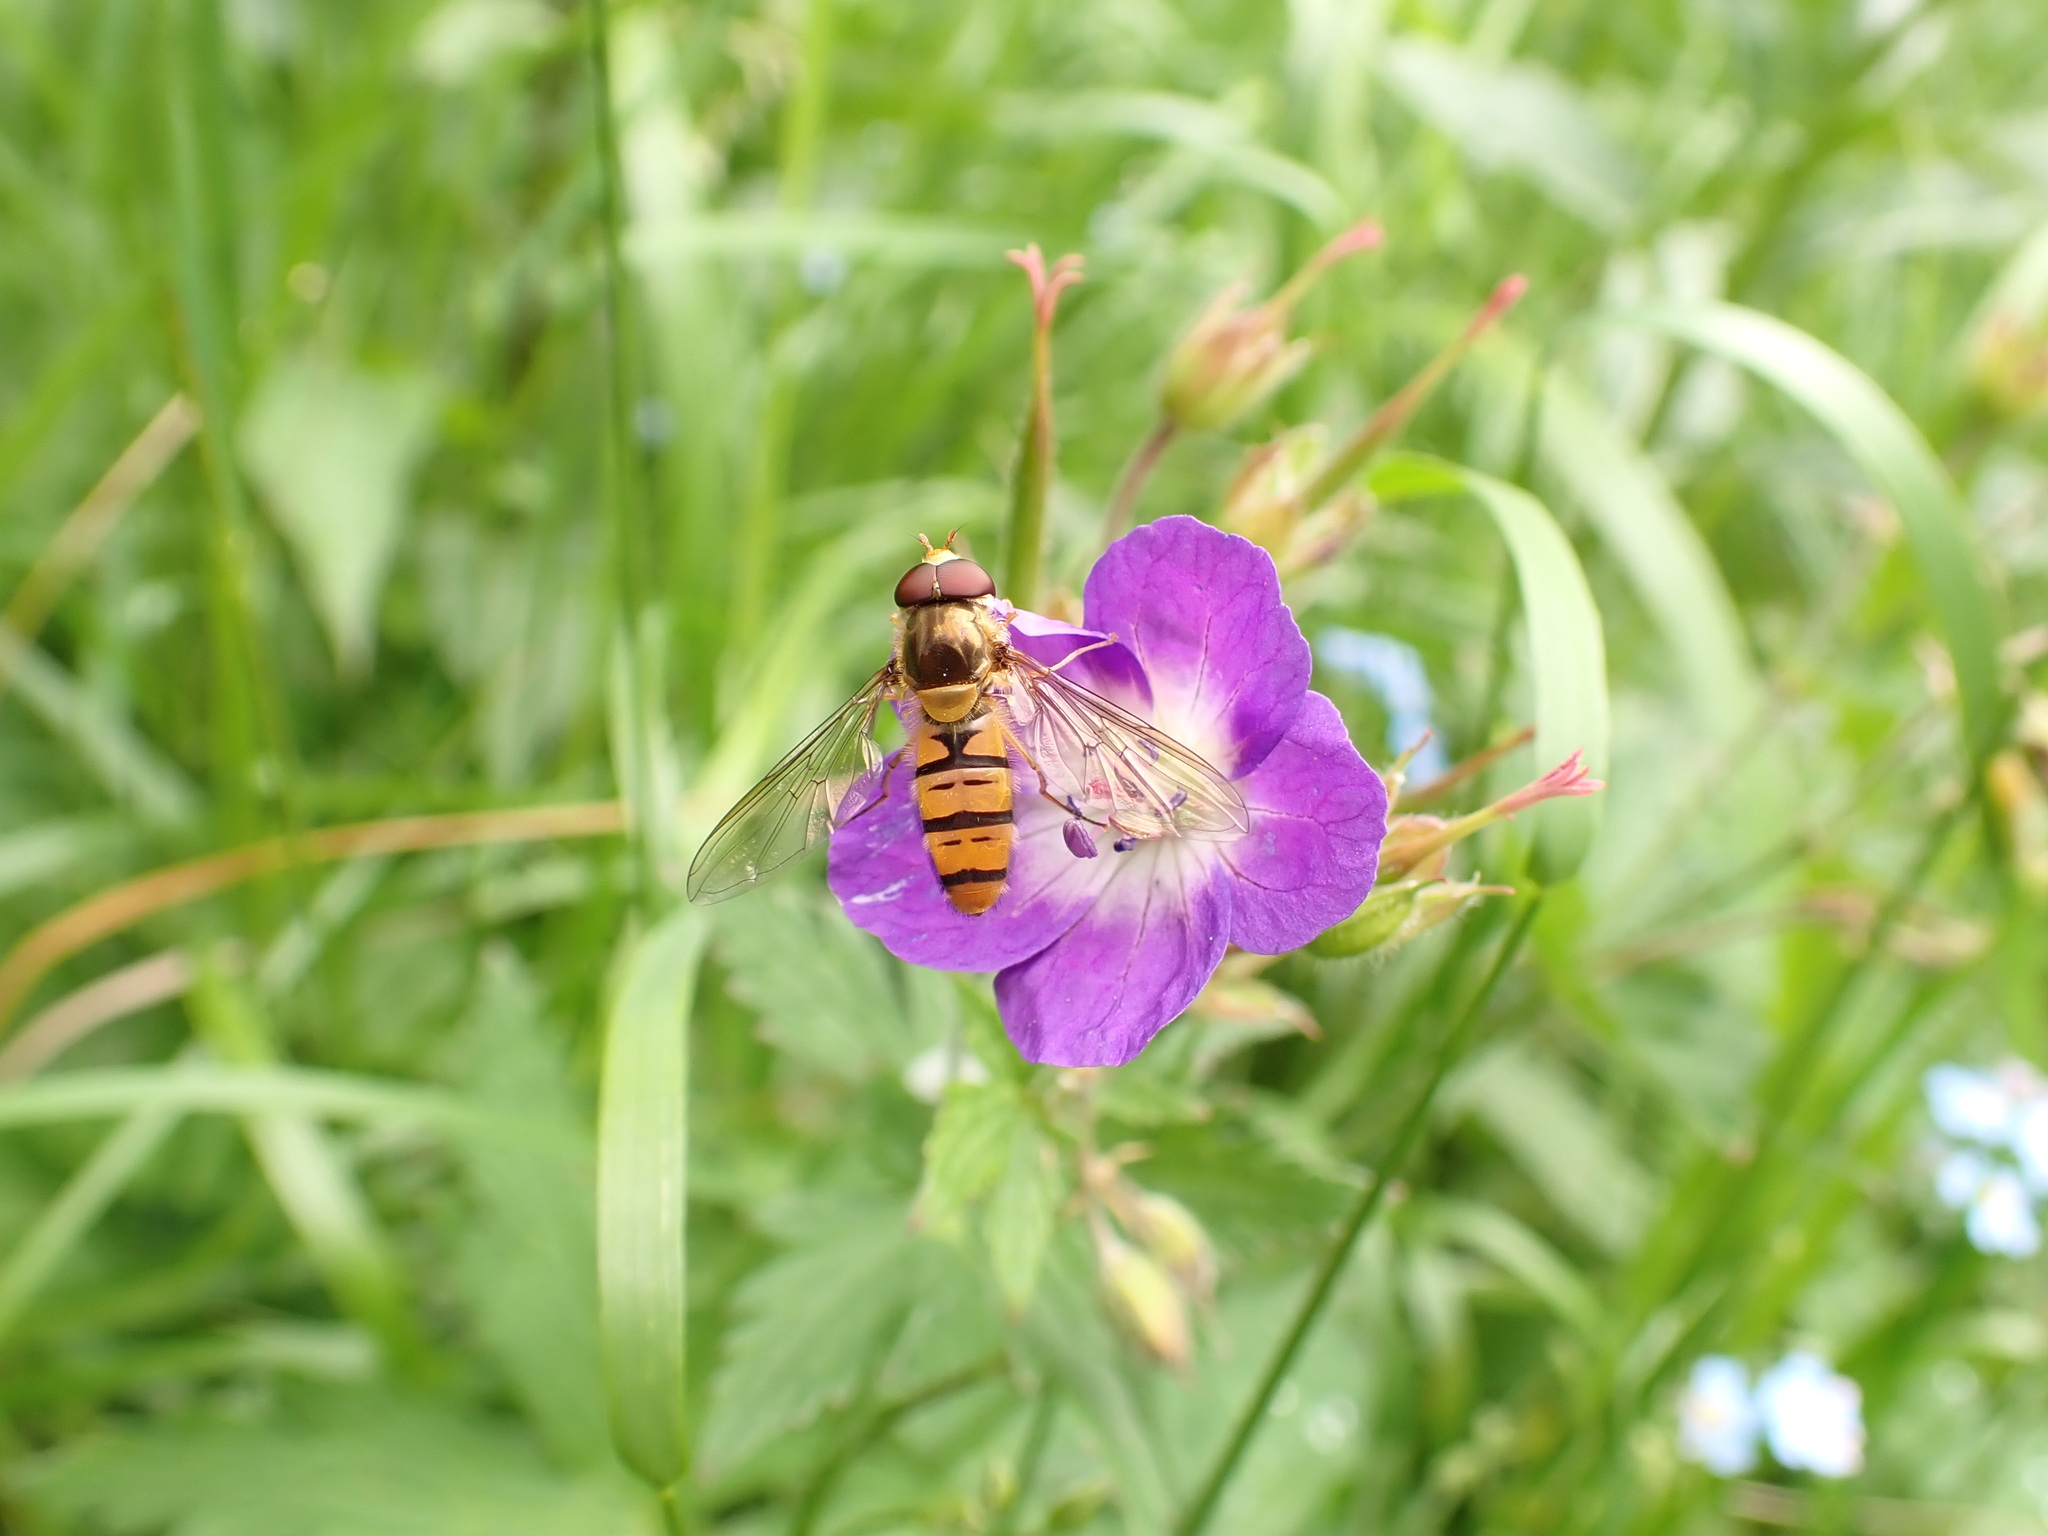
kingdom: Animalia
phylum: Arthropoda
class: Insecta
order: Diptera
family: Syrphidae
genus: Episyrphus
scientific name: Episyrphus balteatus
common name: Marmalade hoverfly
